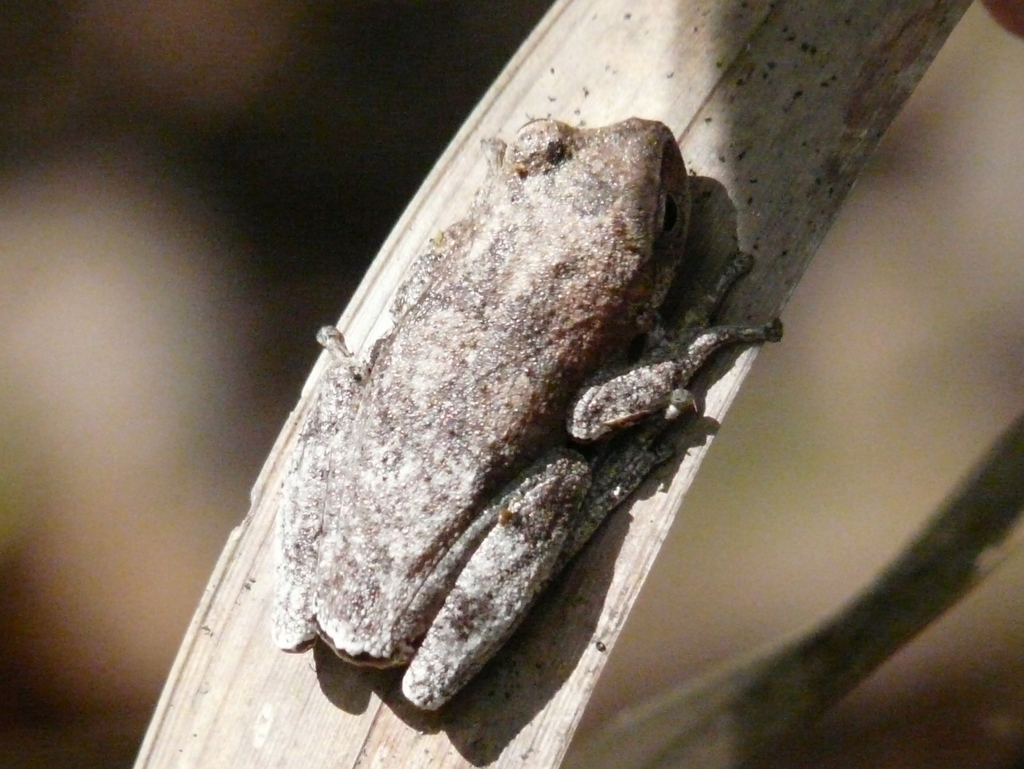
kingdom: Animalia
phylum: Chordata
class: Amphibia
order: Anura
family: Hylidae
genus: Hyla
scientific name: Hyla femoralis
